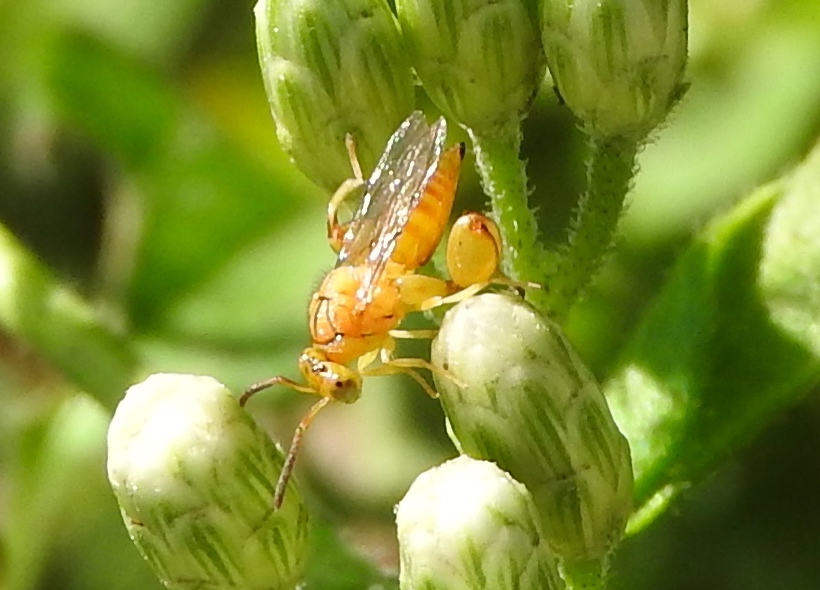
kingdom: Animalia
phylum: Arthropoda
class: Insecta
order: Hymenoptera
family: Chalcididae
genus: Conura
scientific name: Conura
